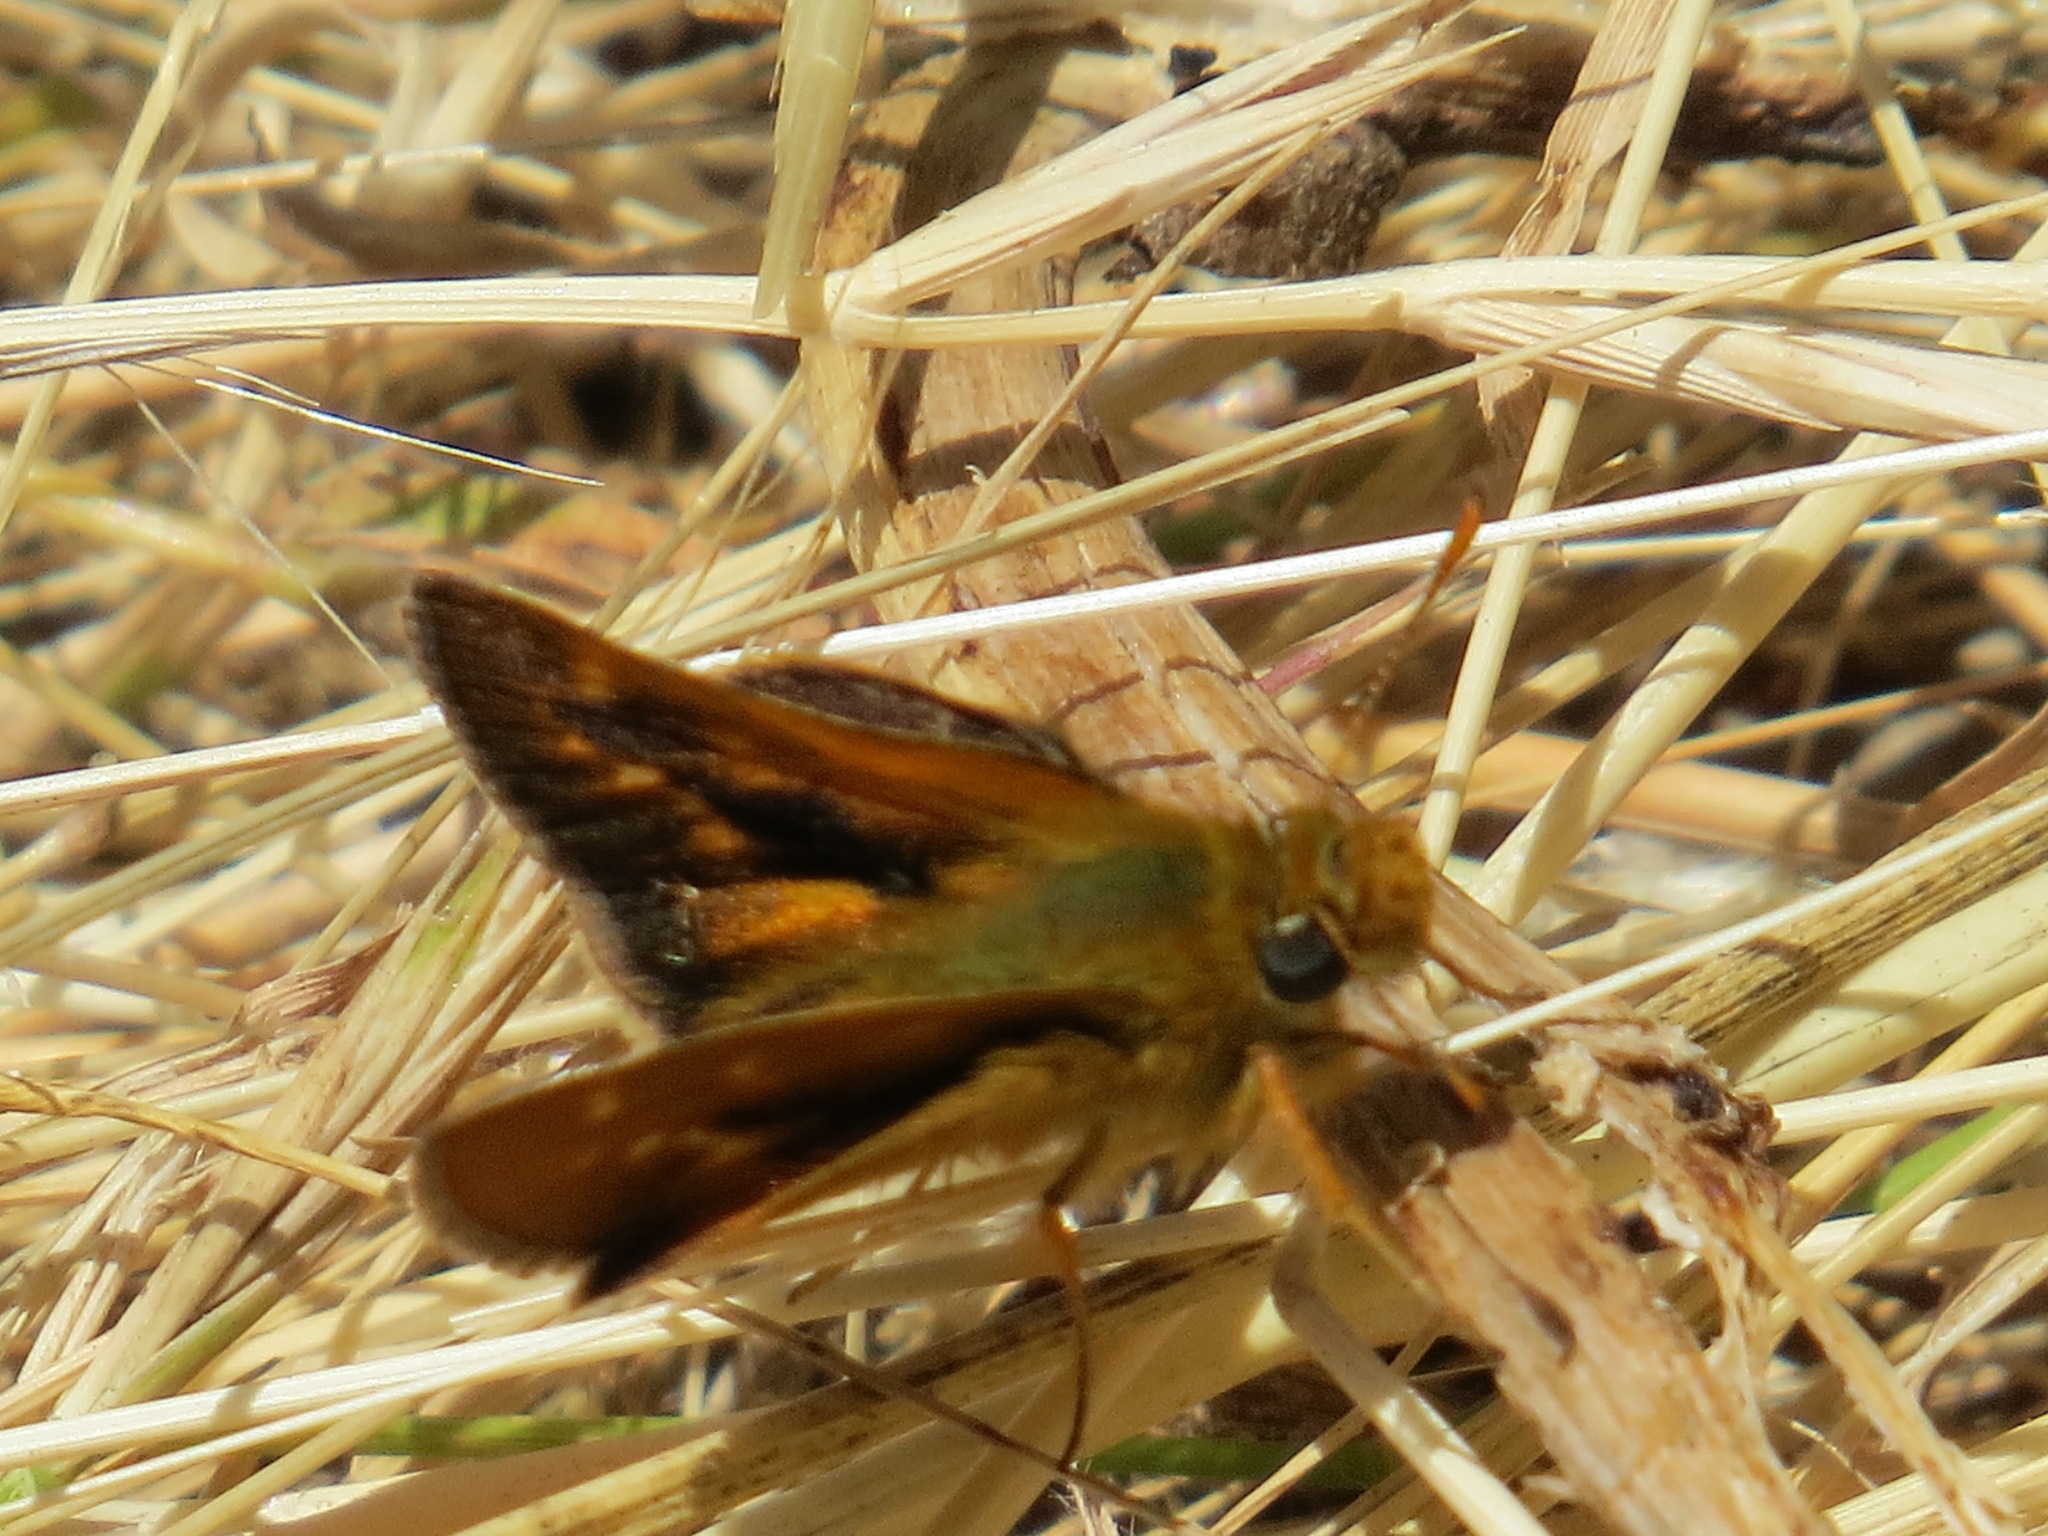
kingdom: Animalia
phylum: Arthropoda
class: Insecta
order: Lepidoptera
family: Hesperiidae
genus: Ochlodes
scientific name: Ochlodes agricola
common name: Rural skipper
